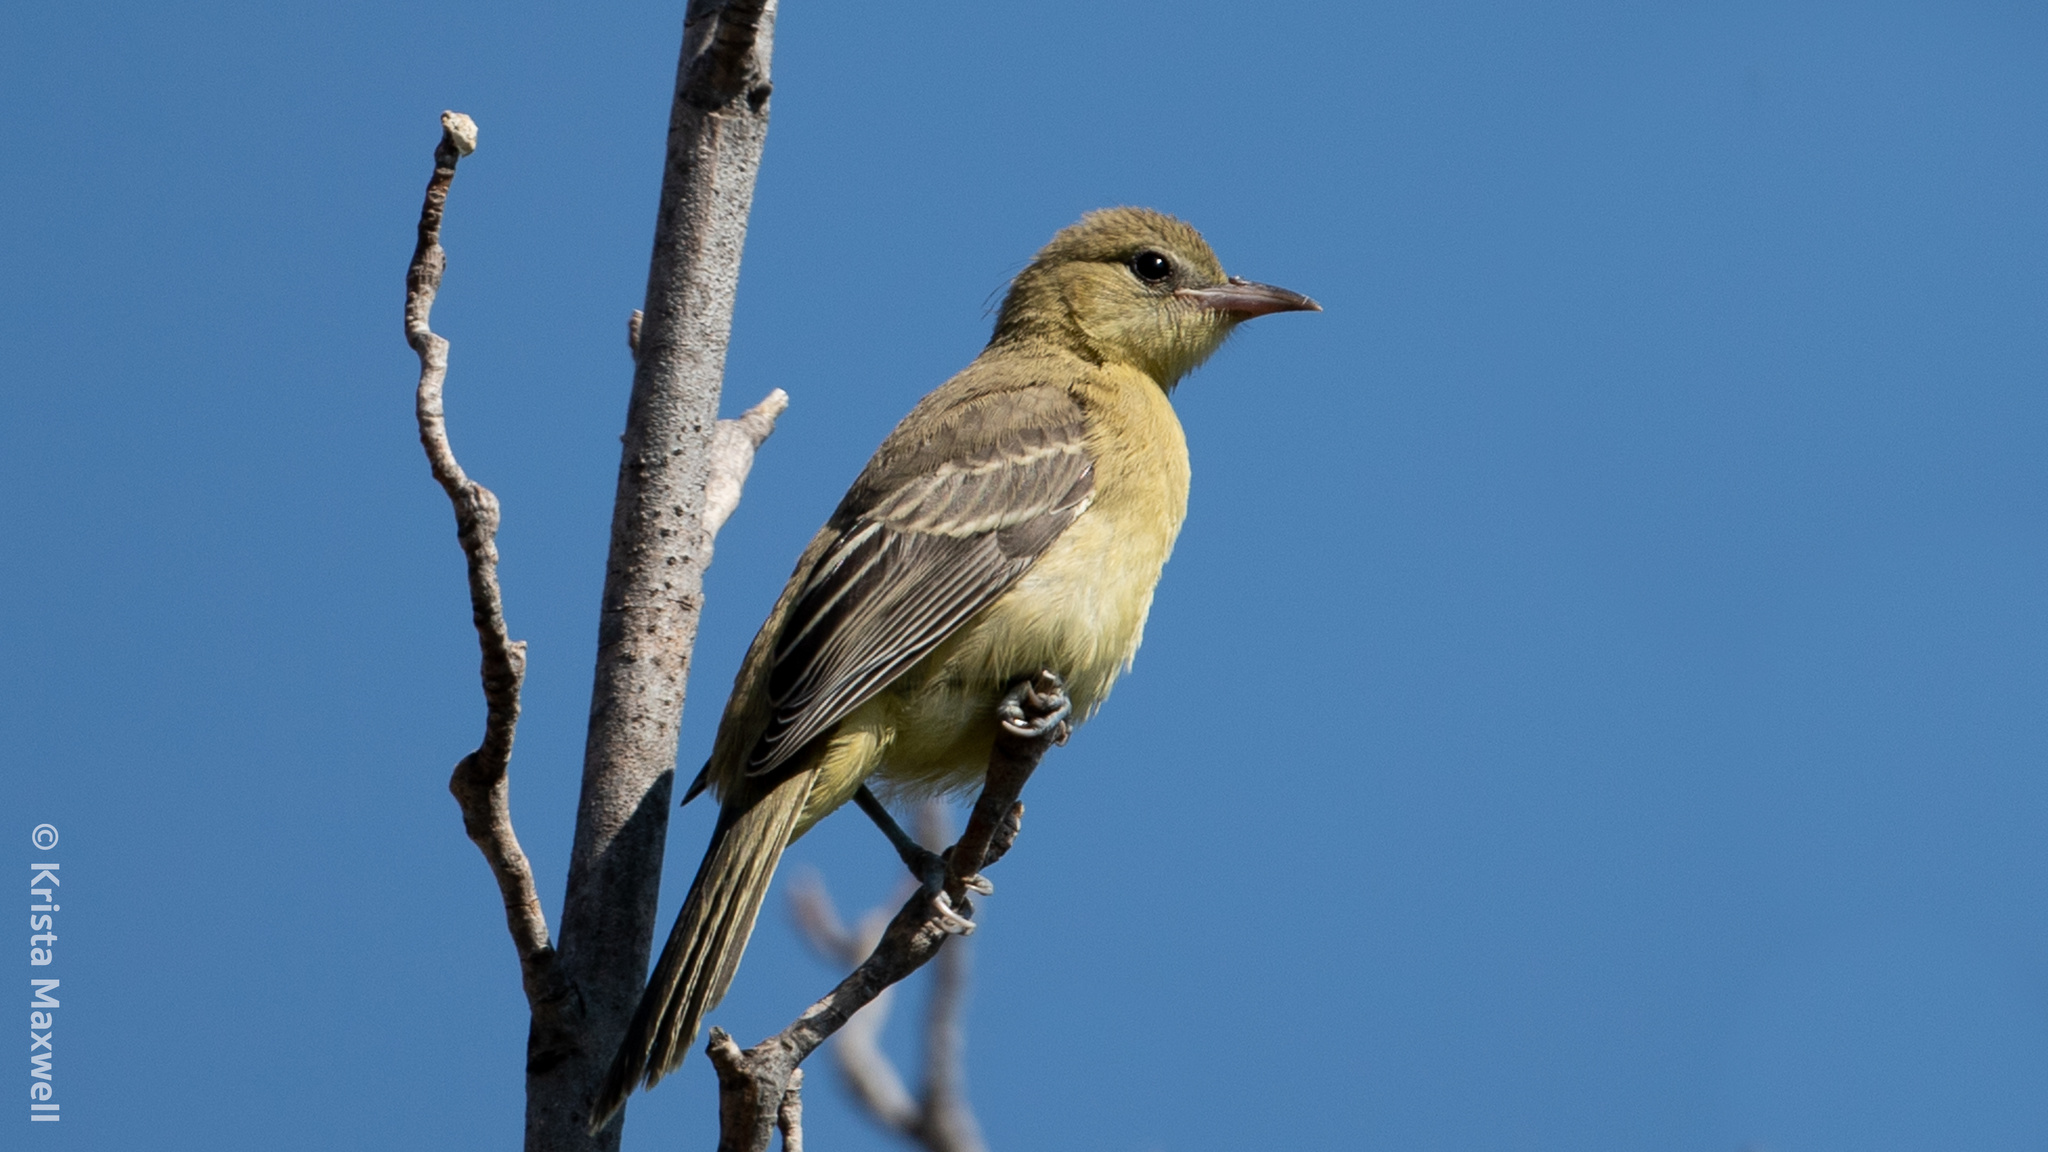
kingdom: Animalia
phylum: Chordata
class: Aves
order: Passeriformes
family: Icteridae
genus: Icterus
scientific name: Icterus cucullatus
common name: Hooded oriole
